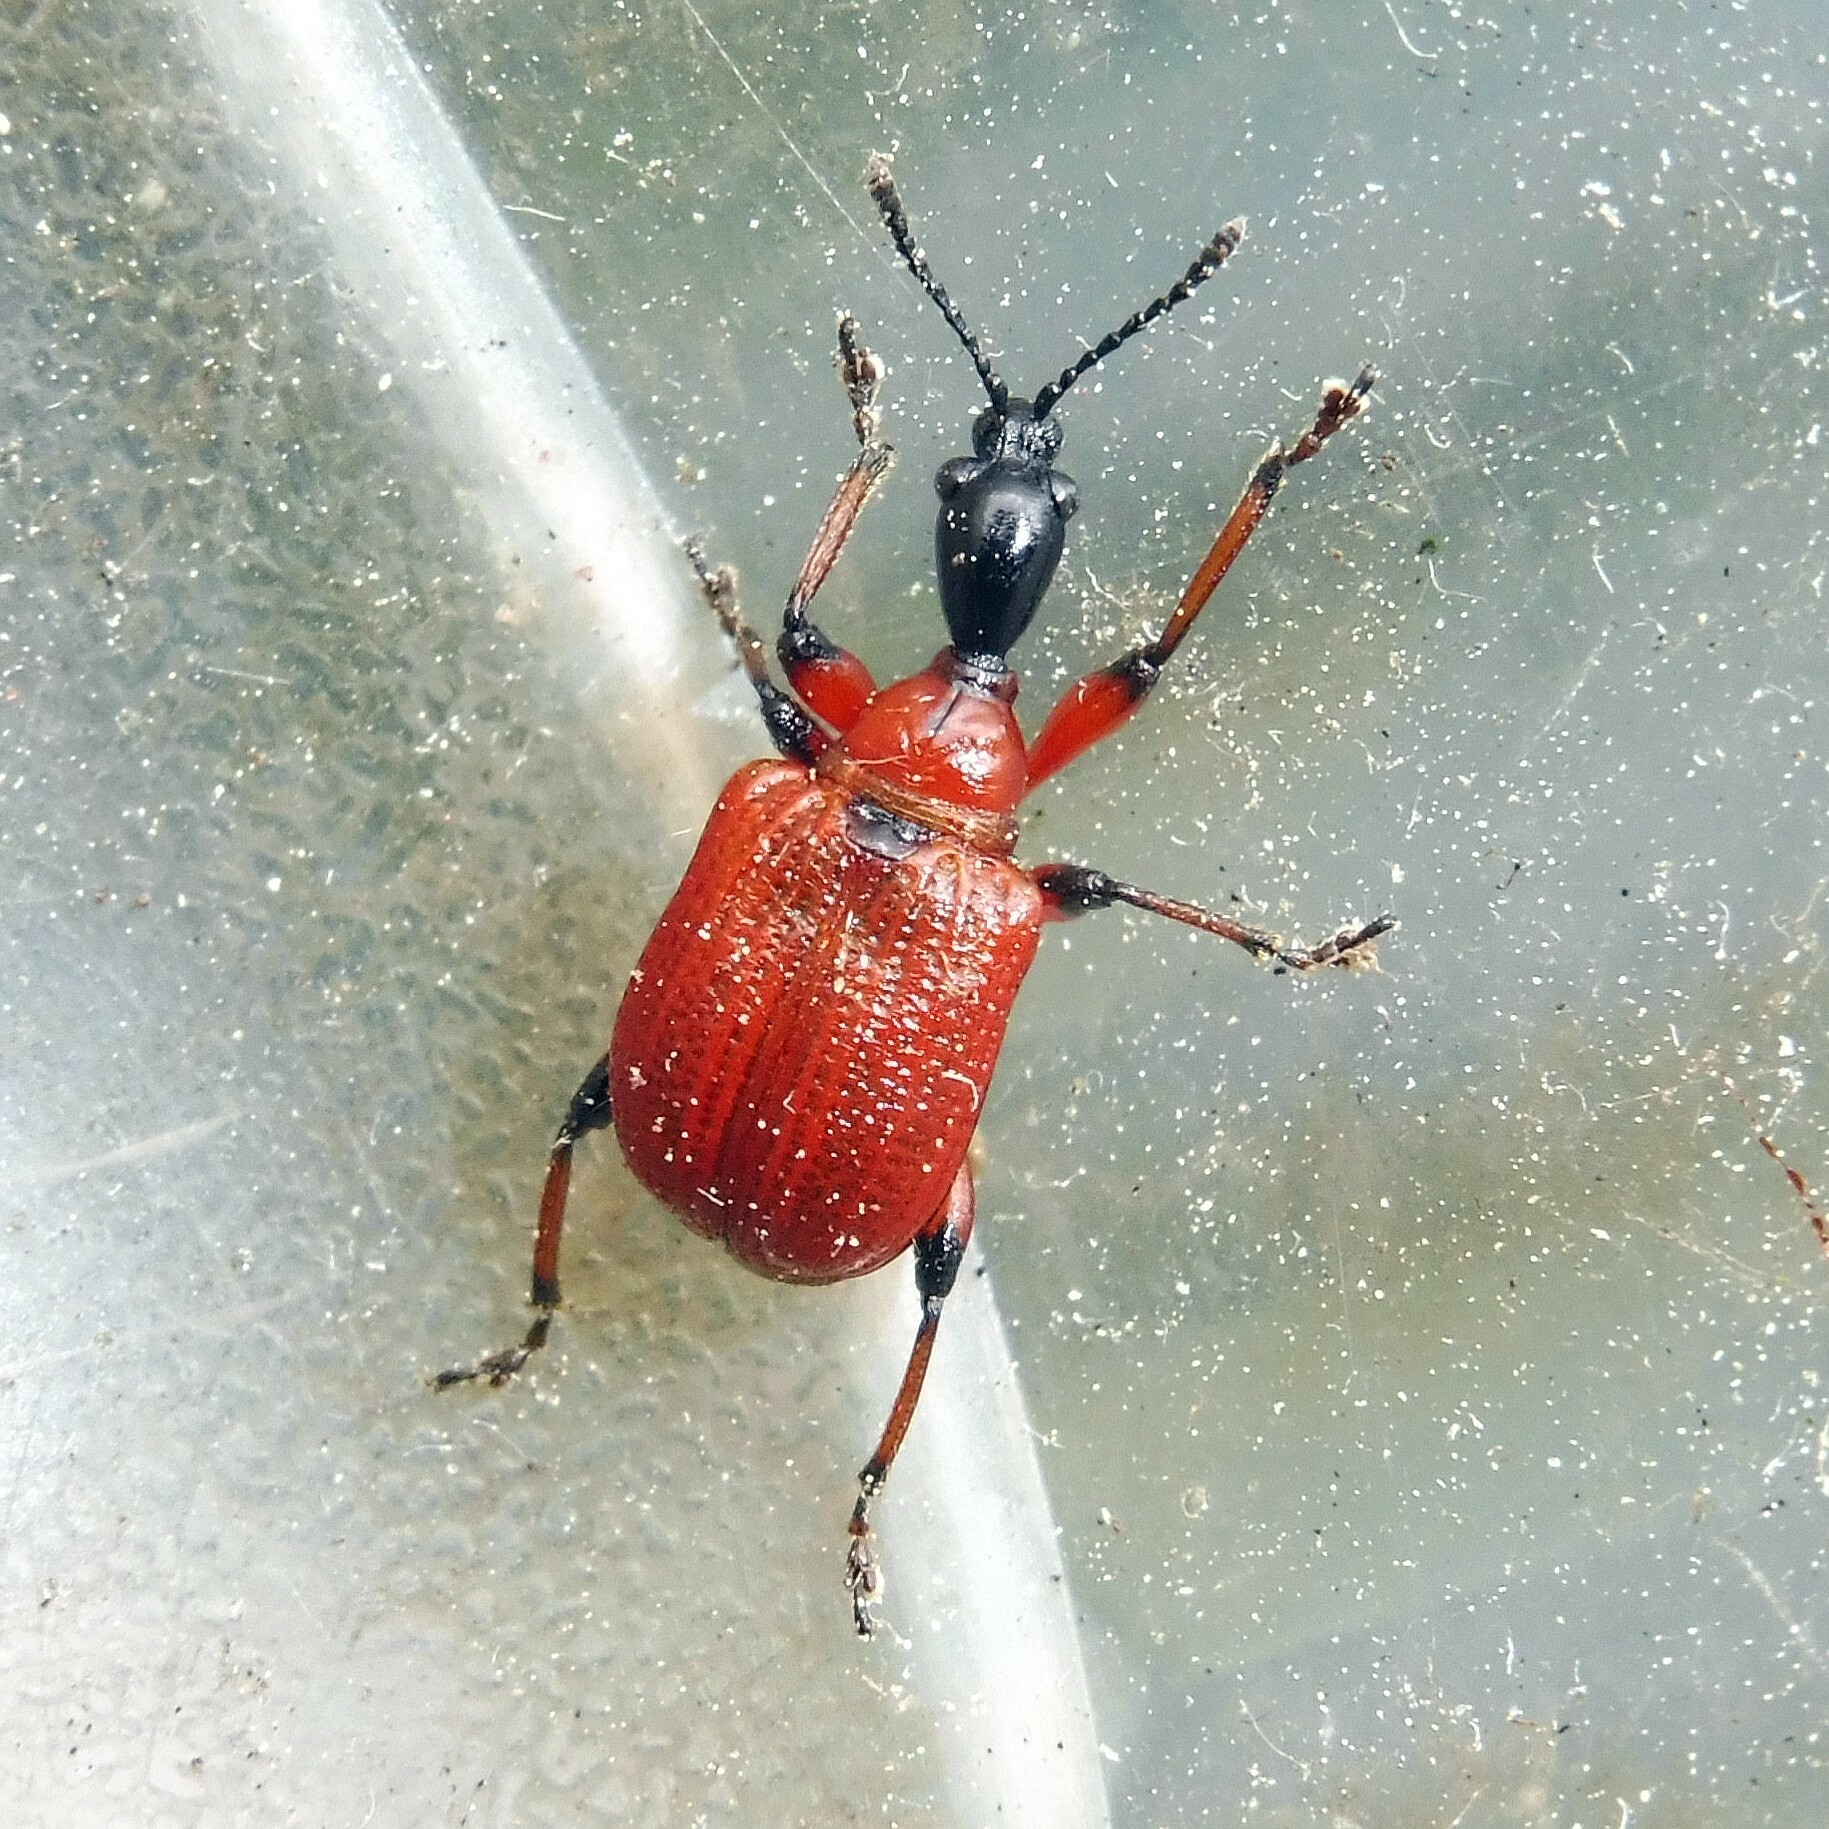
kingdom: Animalia
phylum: Arthropoda
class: Insecta
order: Coleoptera
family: Attelabidae
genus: Apoderus
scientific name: Apoderus coryli
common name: Hazel leaf roller
